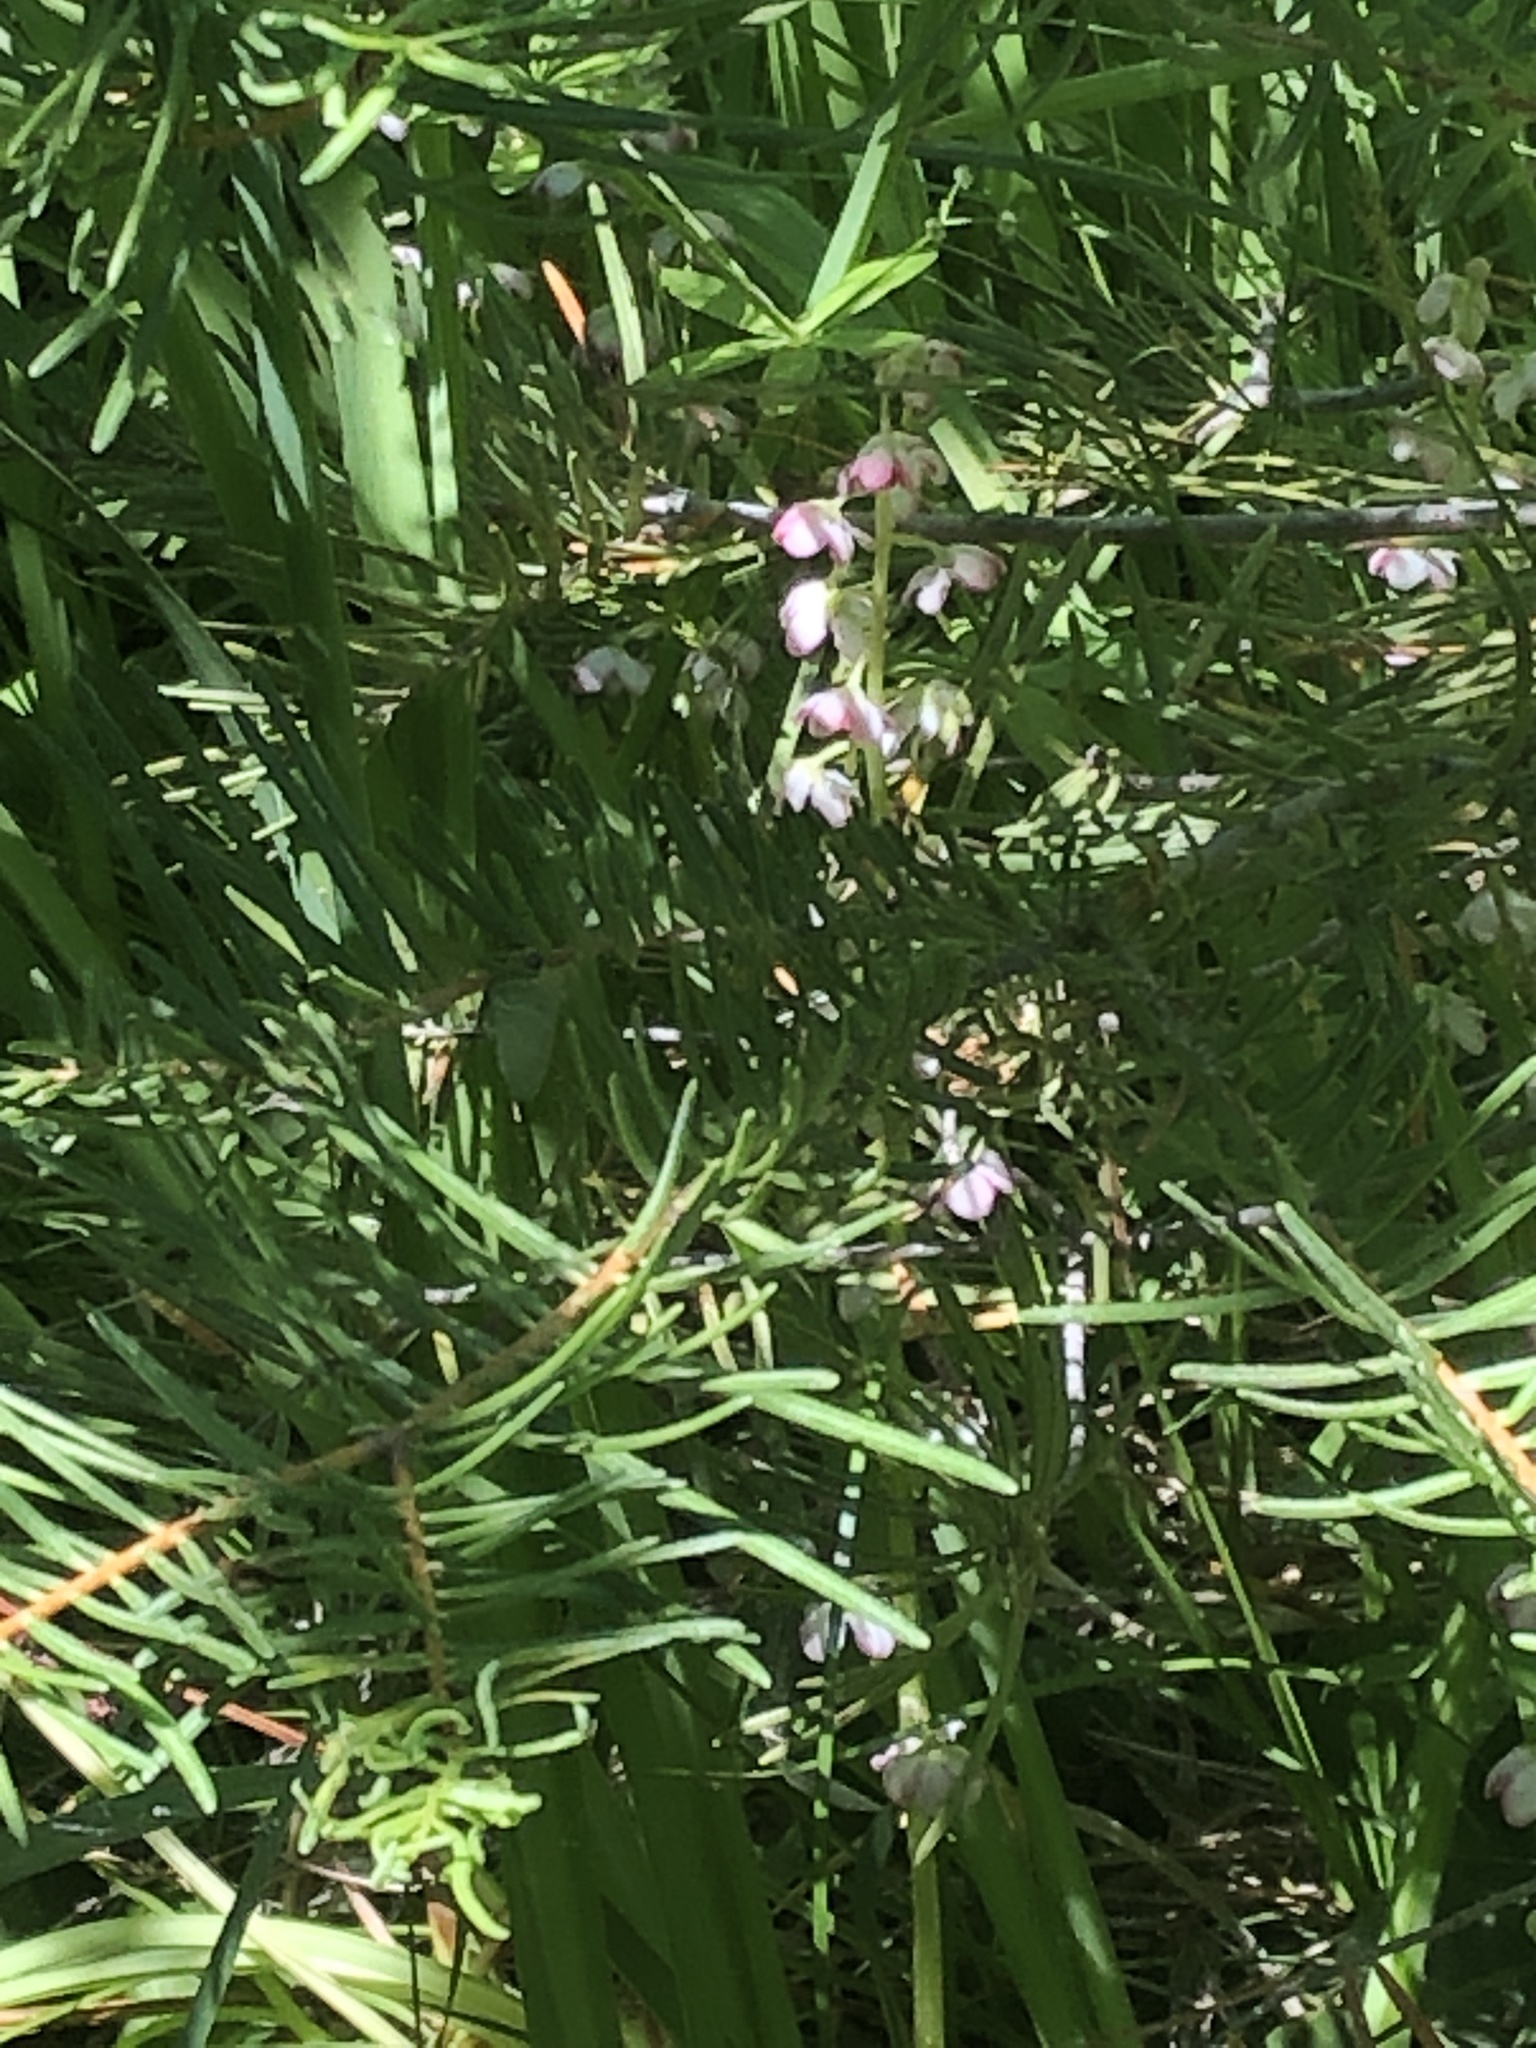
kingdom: Plantae
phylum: Tracheophyta
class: Magnoliopsida
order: Ericales
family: Ericaceae
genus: Pyrola
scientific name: Pyrola asarifolia
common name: Bog wintergreen
